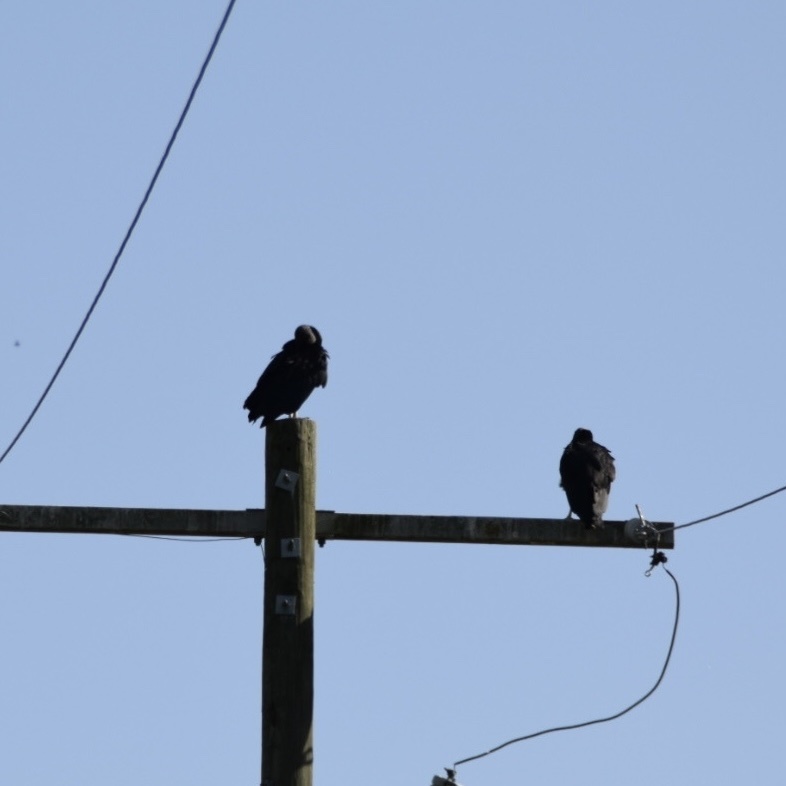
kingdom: Animalia
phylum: Chordata
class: Aves
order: Accipitriformes
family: Cathartidae
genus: Coragyps
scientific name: Coragyps atratus
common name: Black vulture
